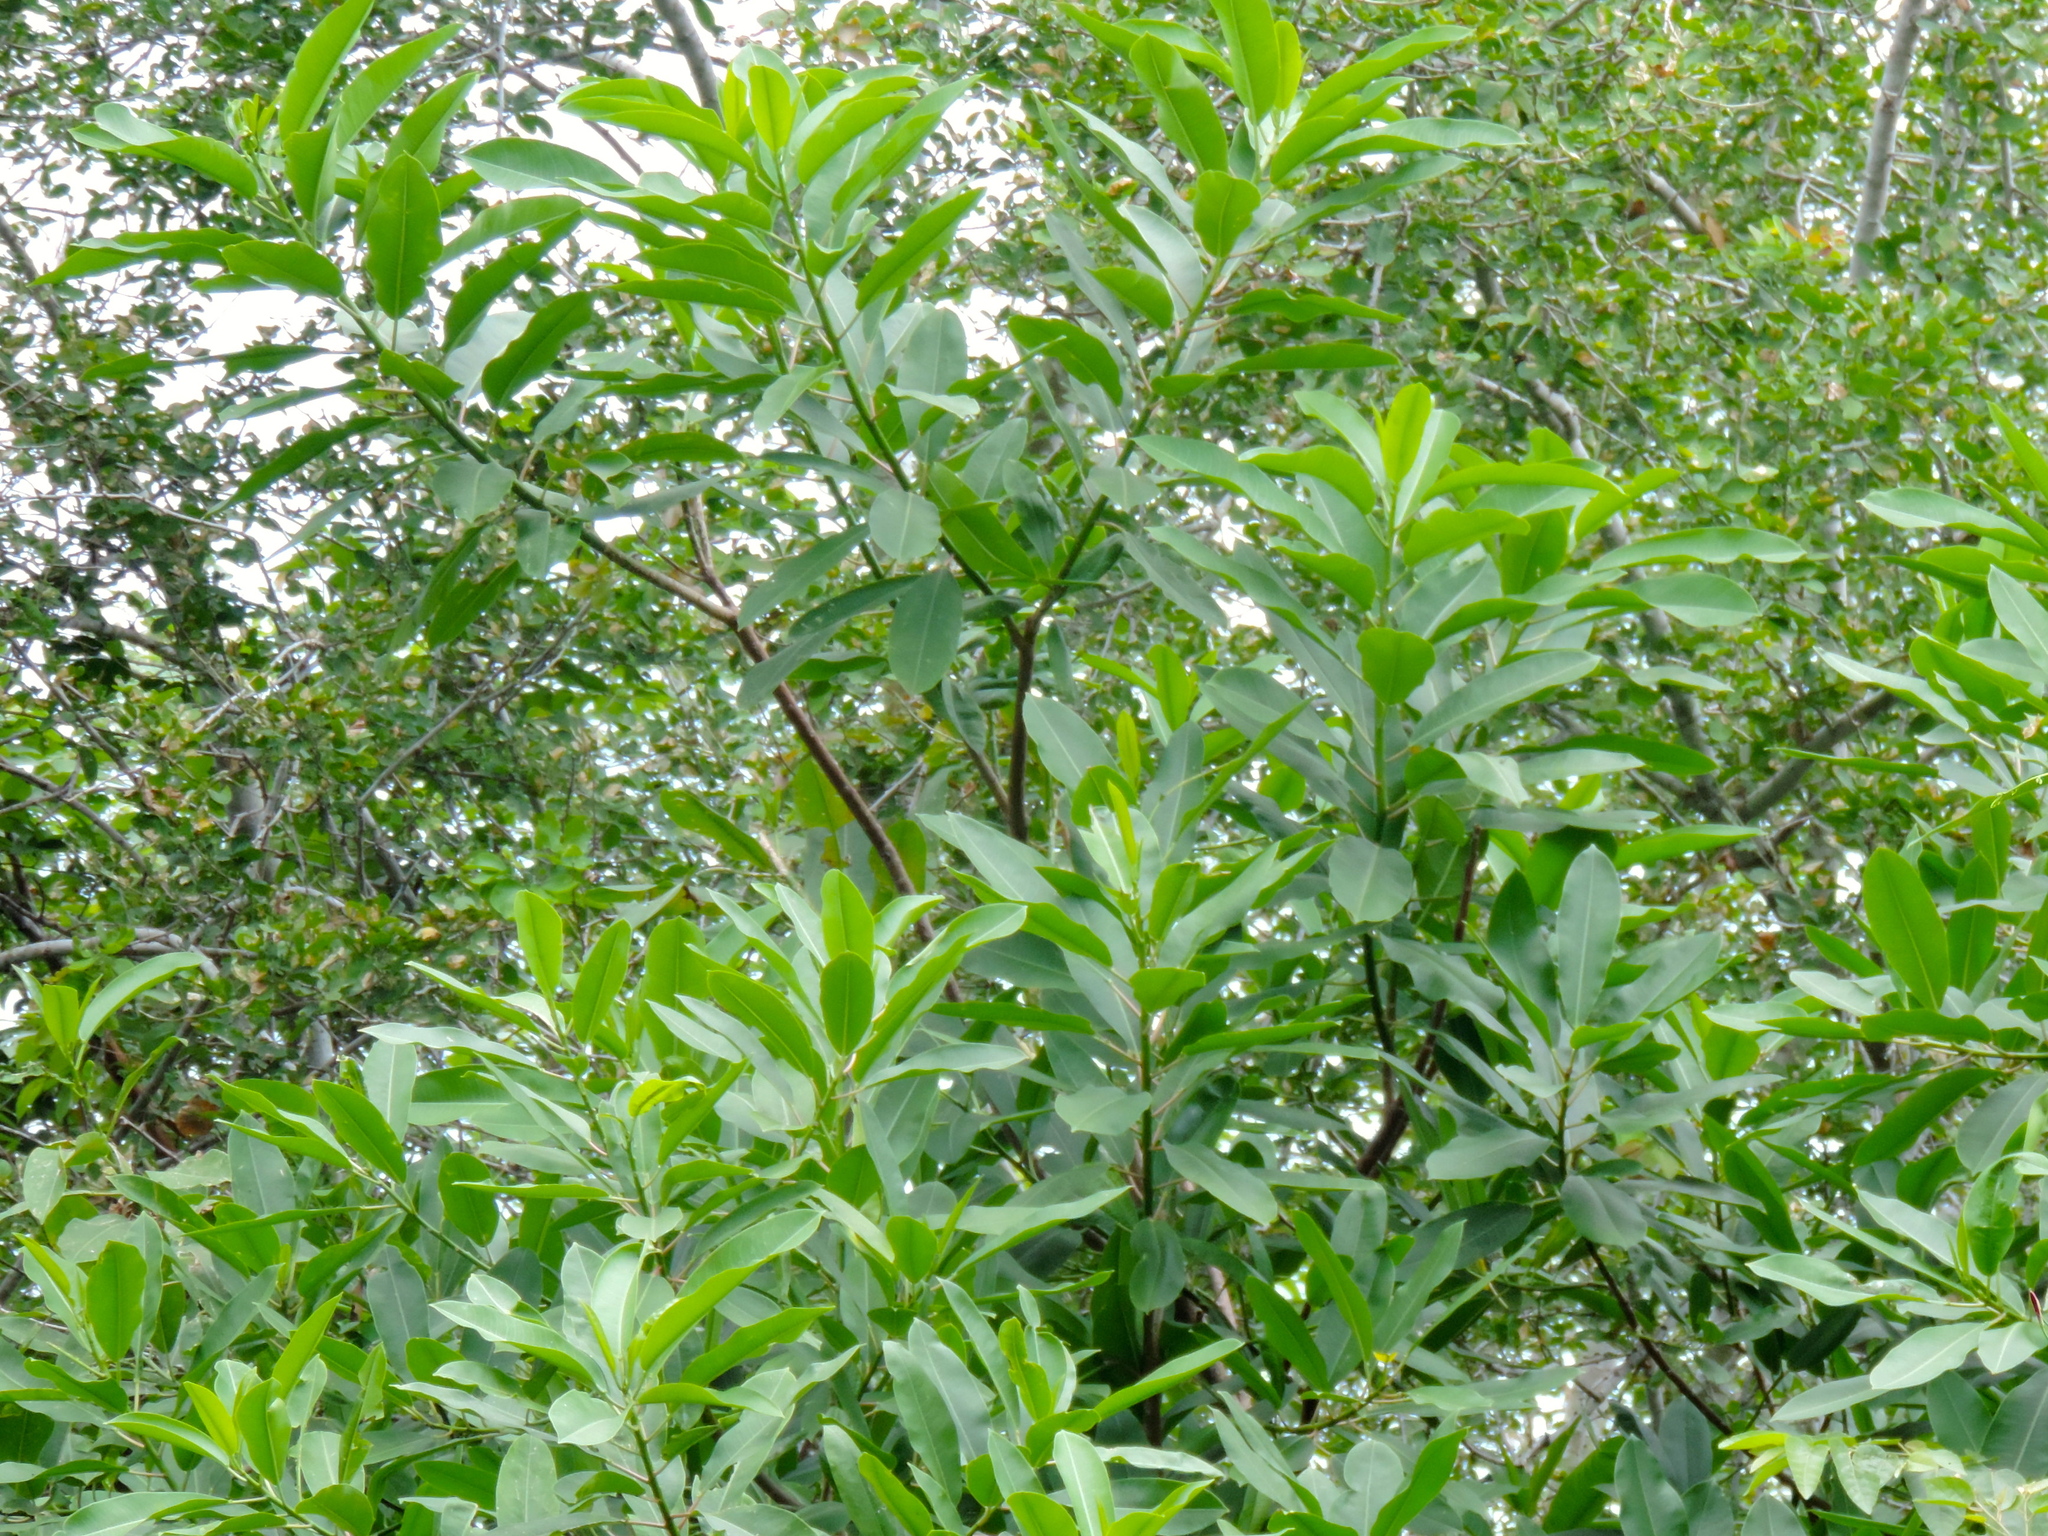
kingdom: Plantae
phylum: Tracheophyta
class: Magnoliopsida
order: Malpighiales
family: Euphorbiaceae
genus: Sapium
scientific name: Sapium lateriflorum
